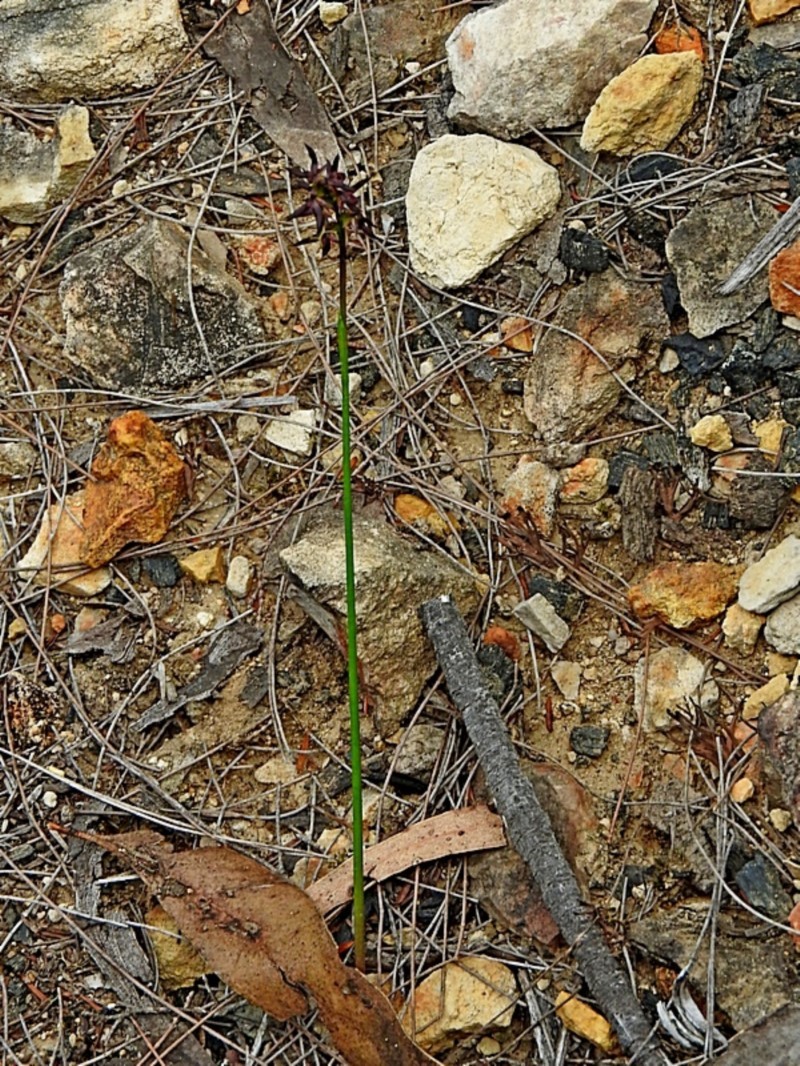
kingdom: Plantae
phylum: Tracheophyta
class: Liliopsida
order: Asparagales
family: Orchidaceae
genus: Genoplesium
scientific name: Genoplesium rhyoliticum
